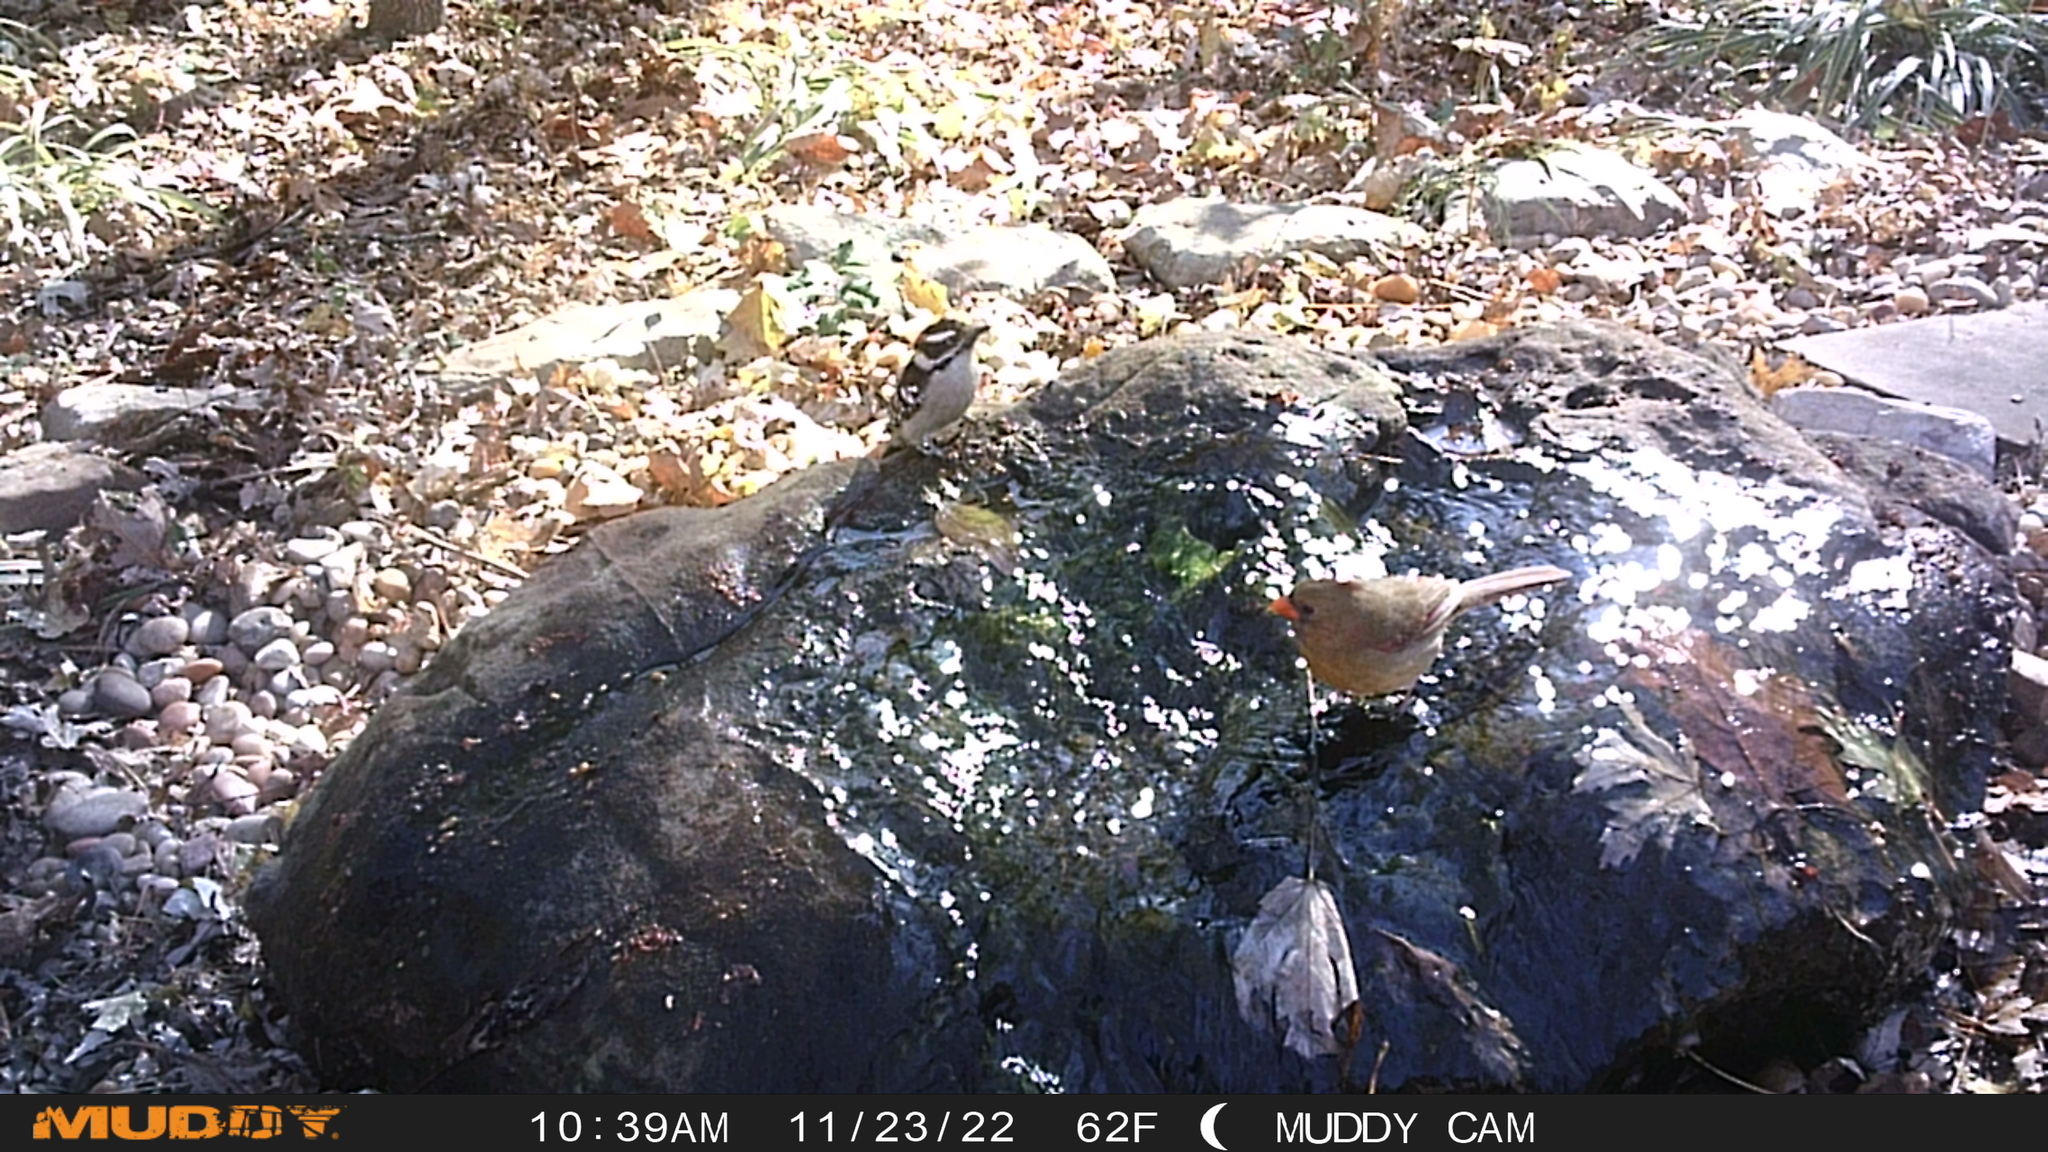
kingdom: Animalia
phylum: Chordata
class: Aves
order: Piciformes
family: Picidae
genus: Dryobates
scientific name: Dryobates pubescens
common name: Downy woodpecker
